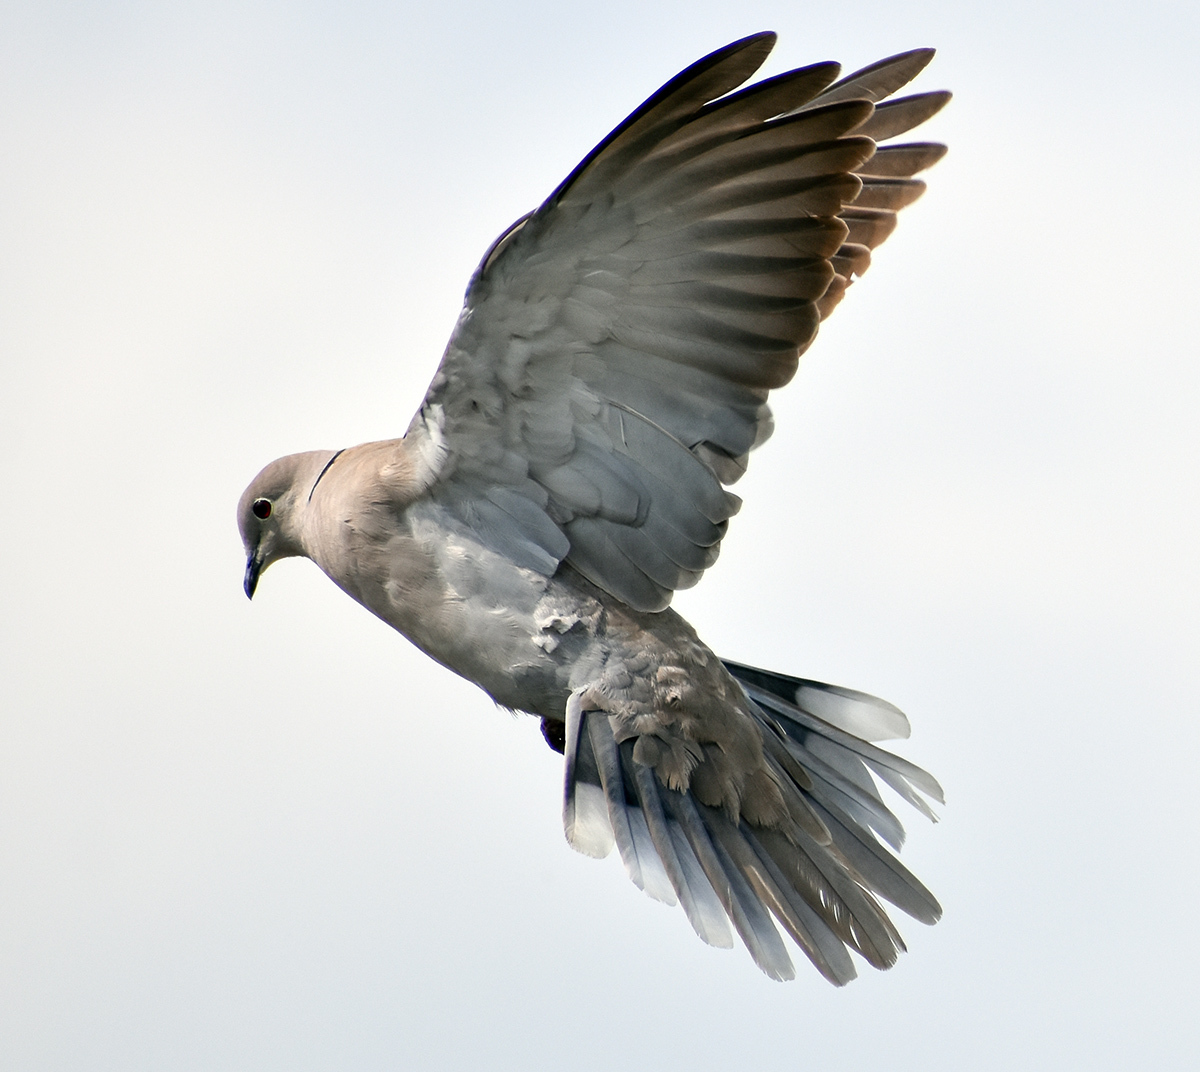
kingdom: Animalia
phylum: Chordata
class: Aves
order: Columbiformes
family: Columbidae
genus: Streptopelia
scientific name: Streptopelia decaocto
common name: Eurasian collared dove
